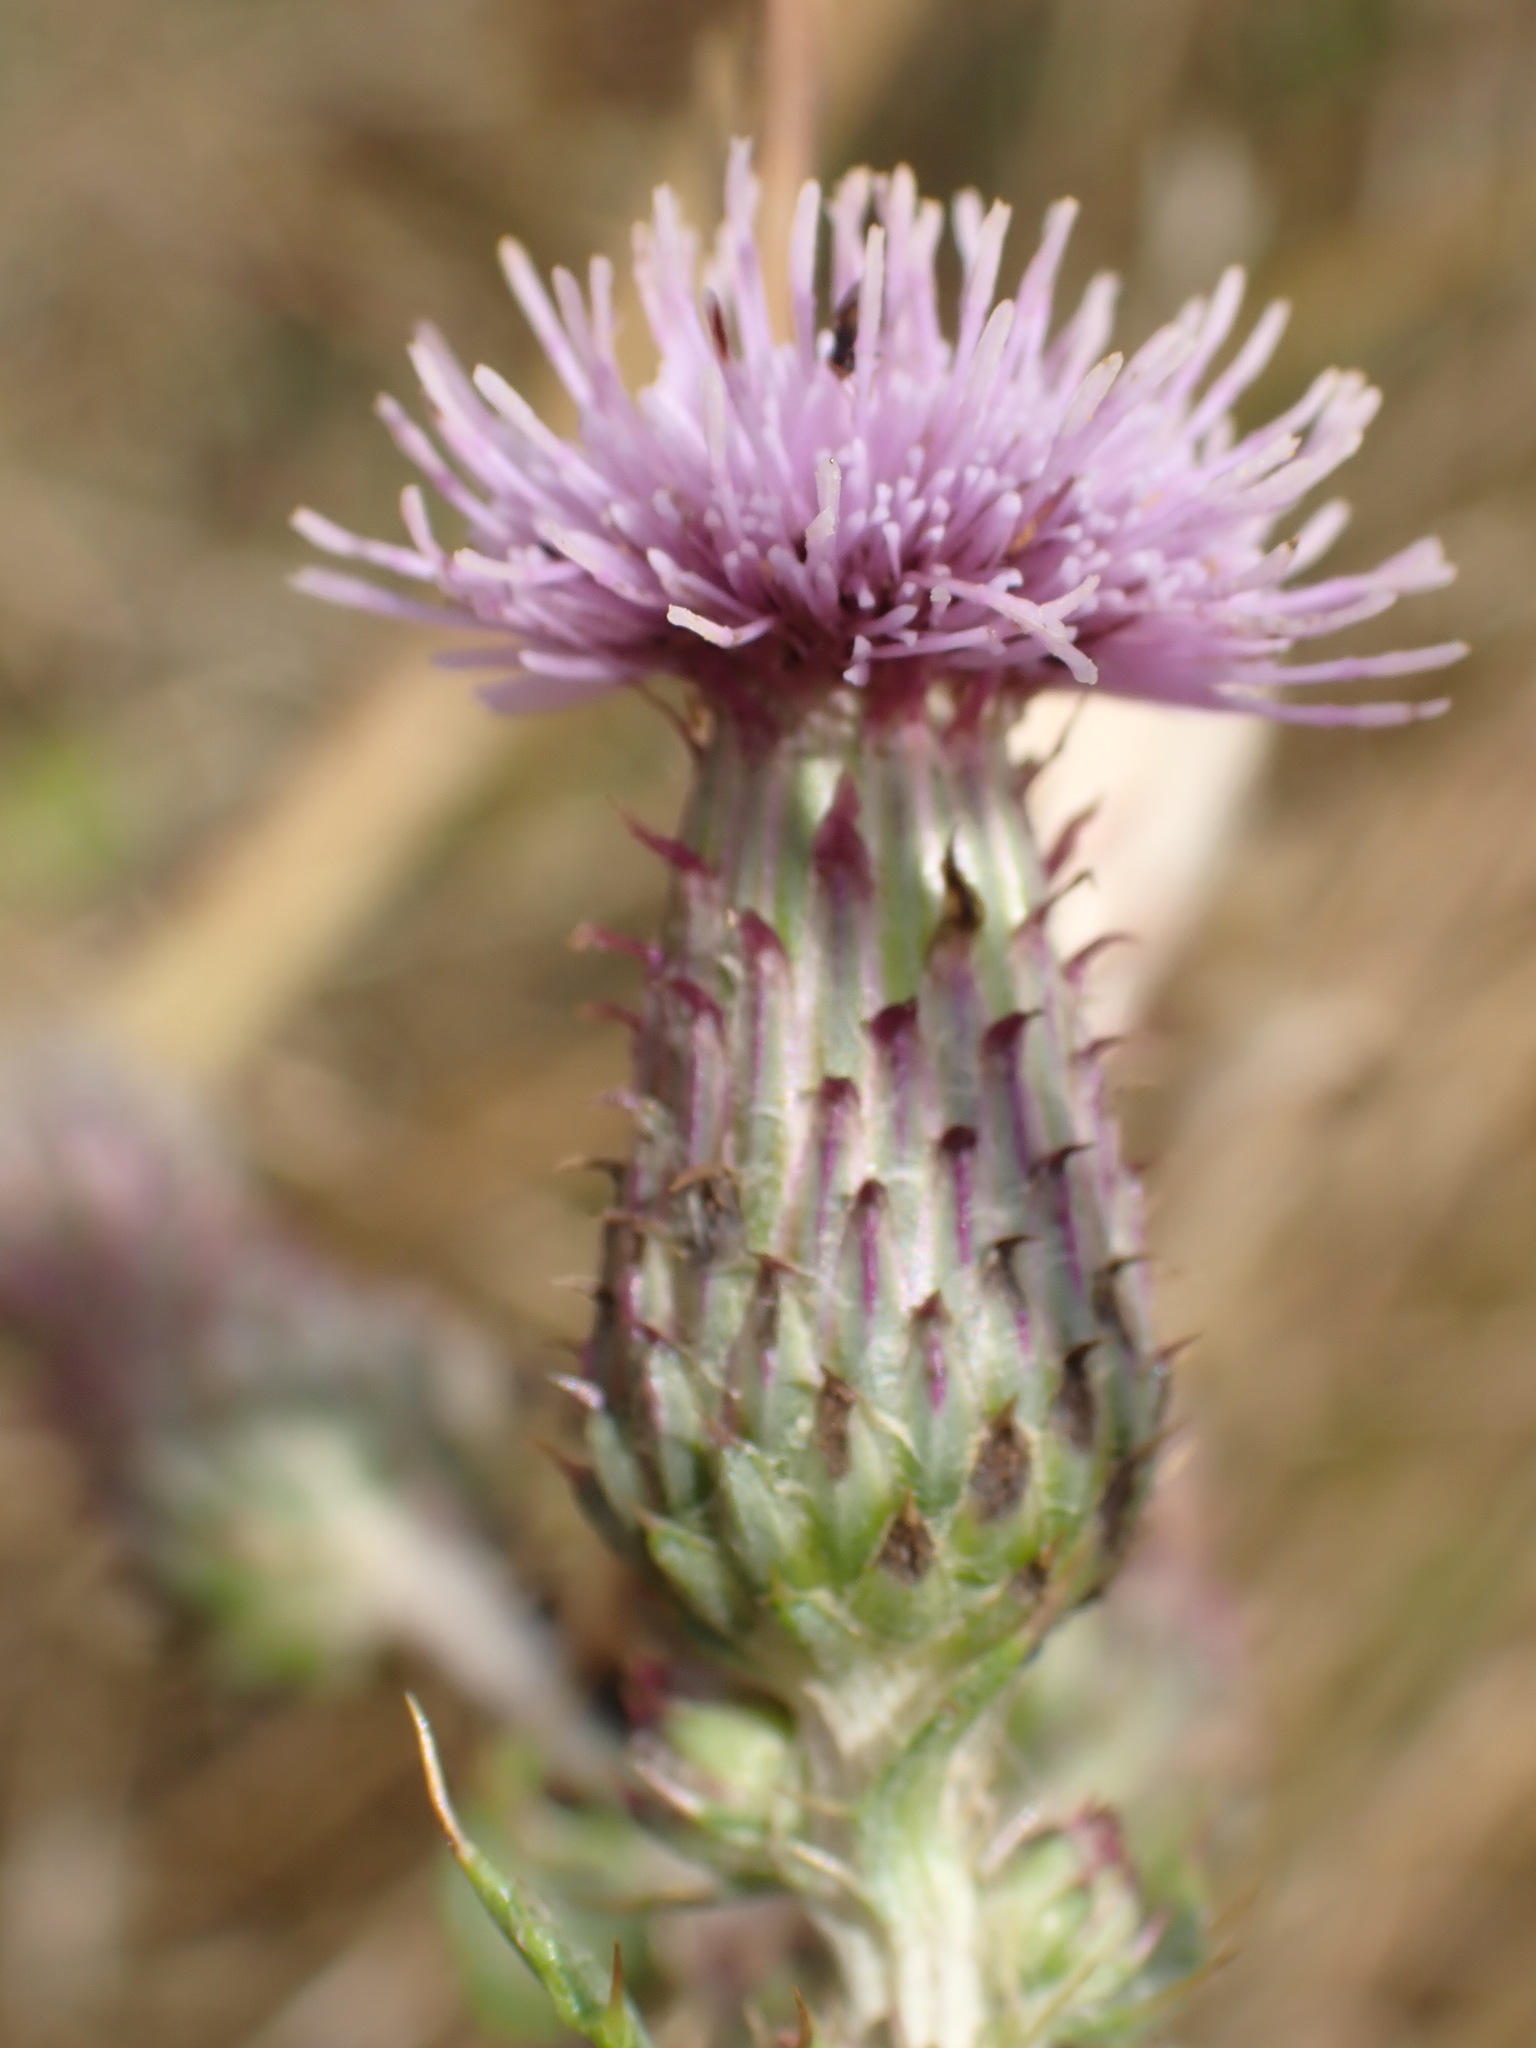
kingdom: Plantae
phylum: Tracheophyta
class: Magnoliopsida
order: Asterales
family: Asteraceae
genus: Cirsium
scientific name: Cirsium arvense
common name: Creeping thistle
